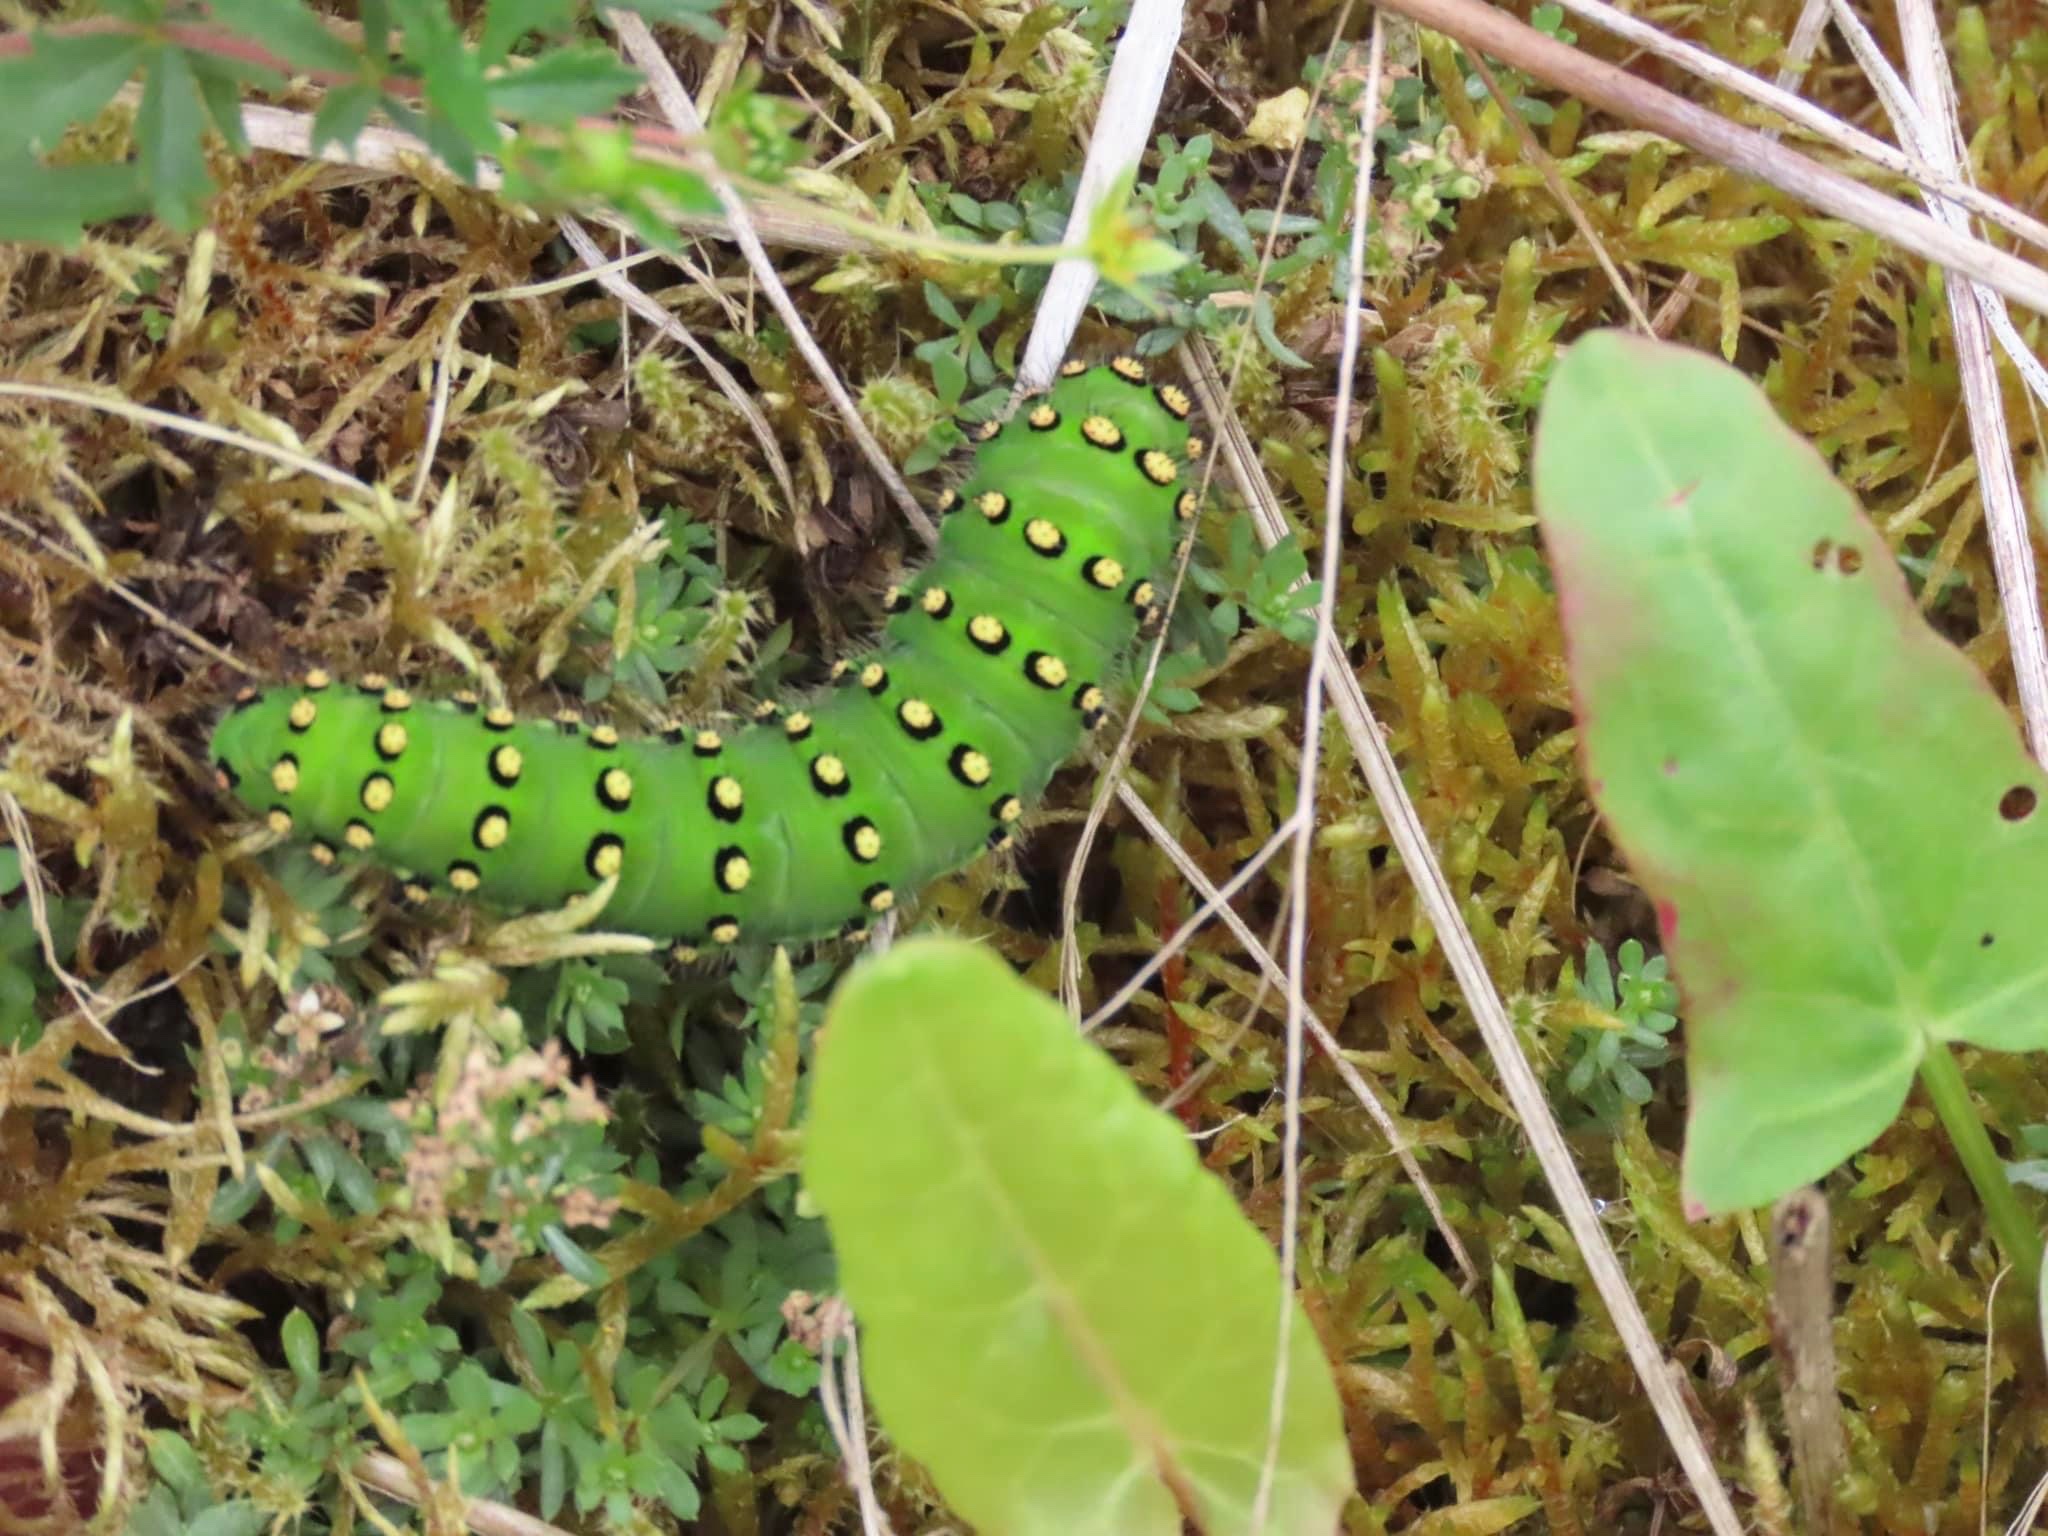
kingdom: Animalia
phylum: Arthropoda
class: Insecta
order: Lepidoptera
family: Saturniidae
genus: Saturnia
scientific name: Saturnia pavonia
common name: Emperor moth
